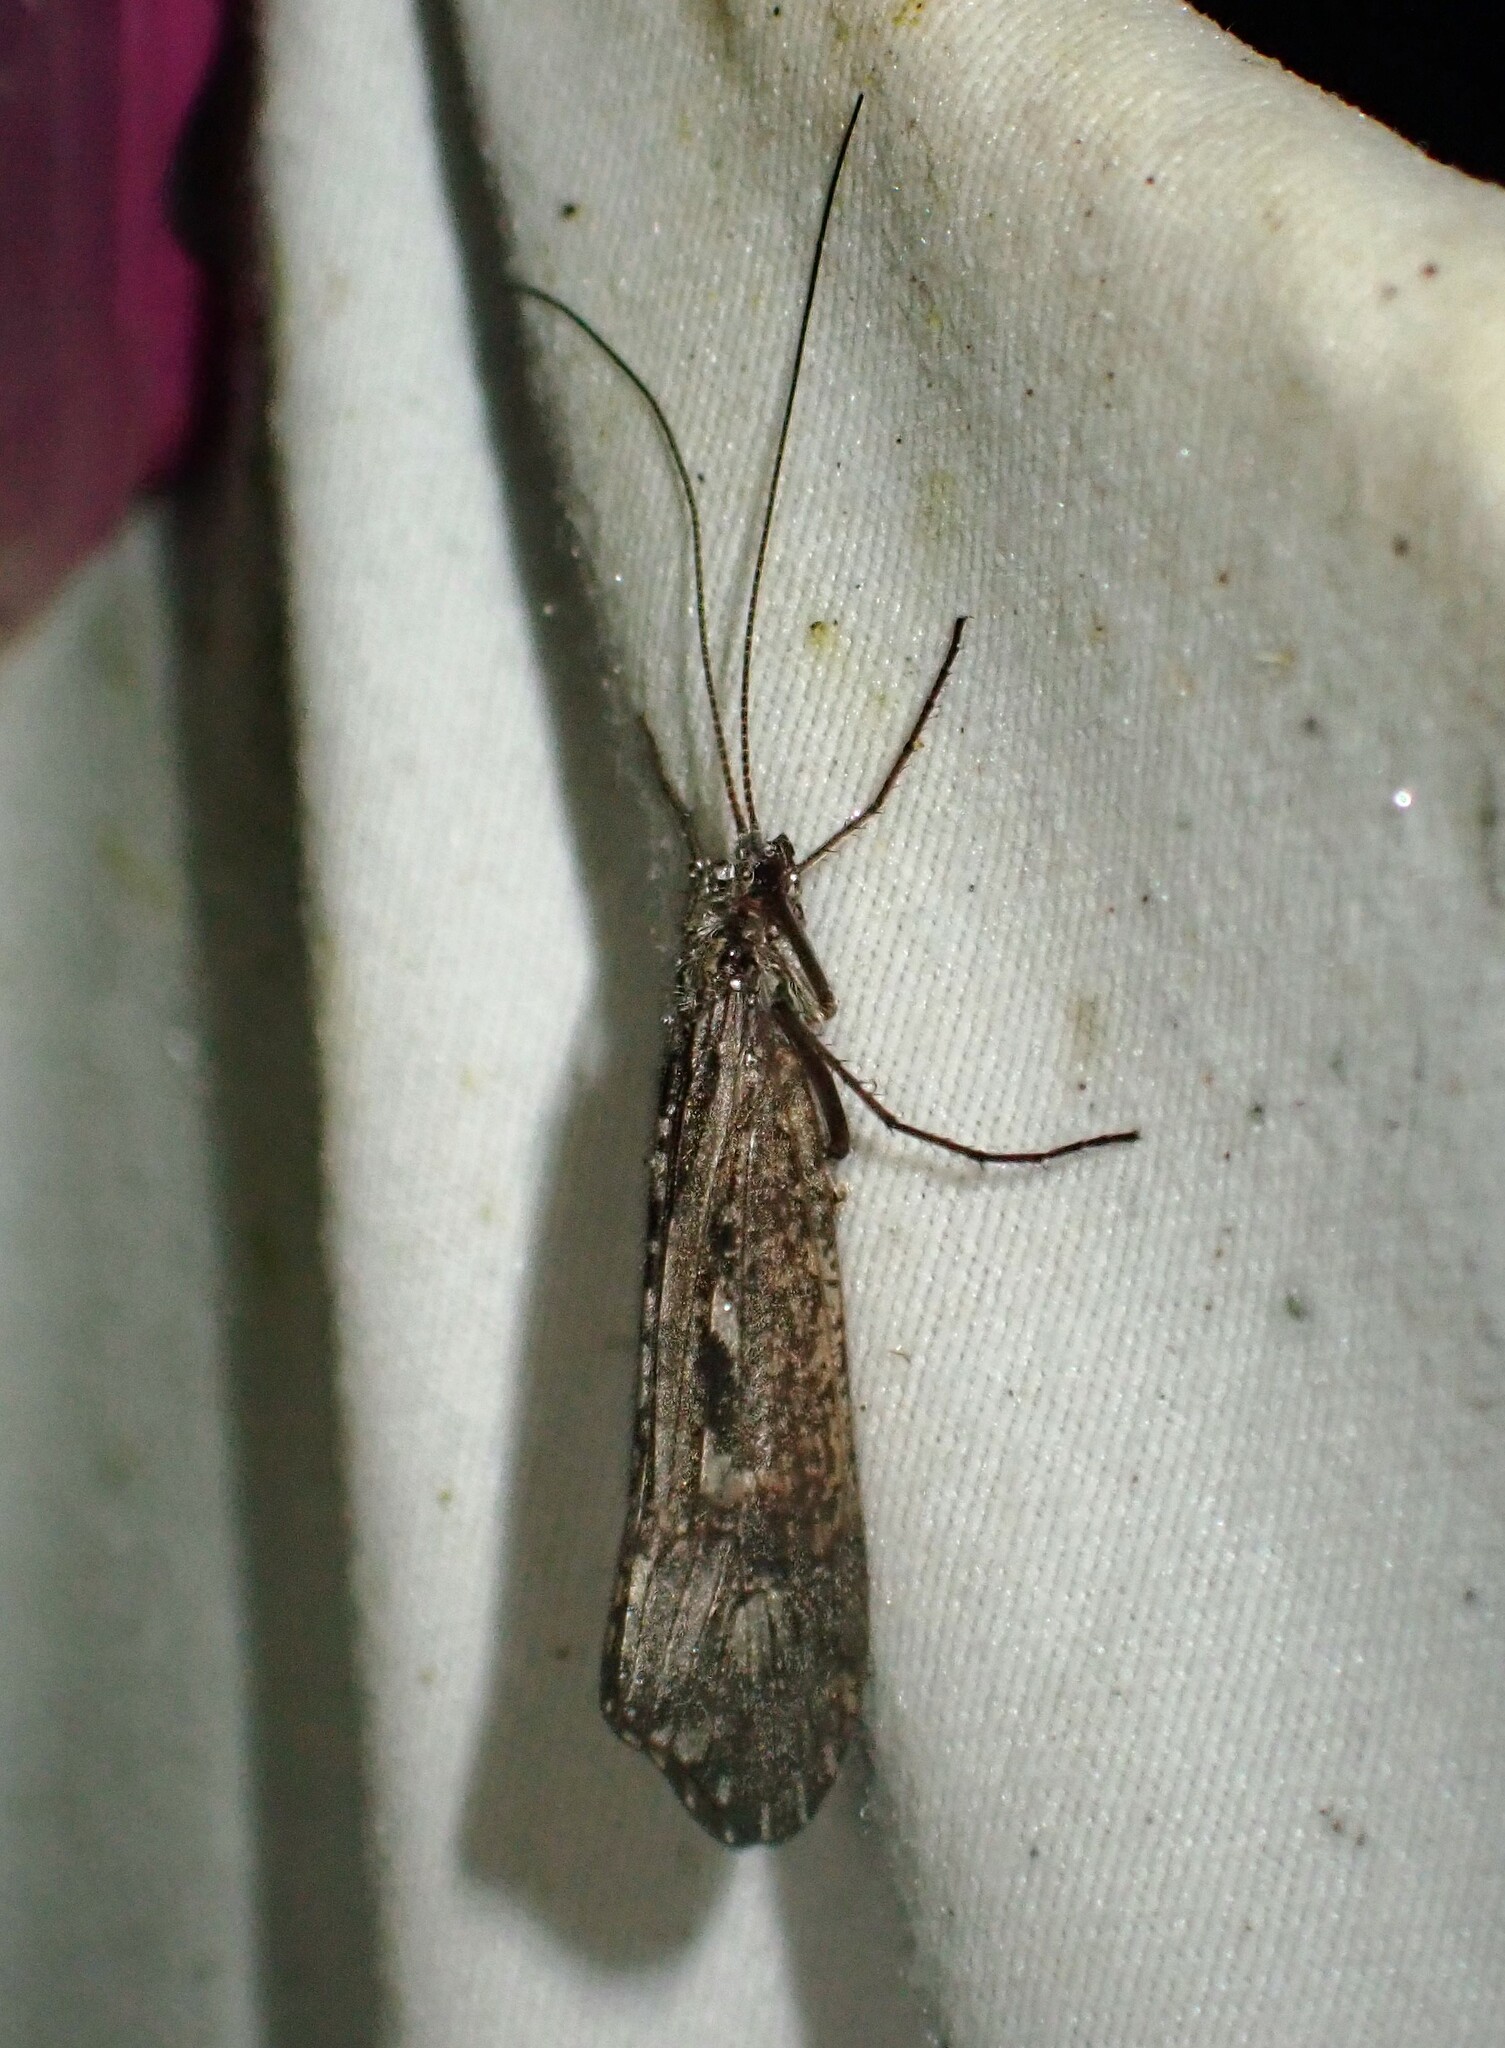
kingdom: Animalia
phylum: Arthropoda
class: Insecta
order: Trichoptera
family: Limnephilidae
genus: Glyphopsyche
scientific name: Glyphopsyche irrorata
